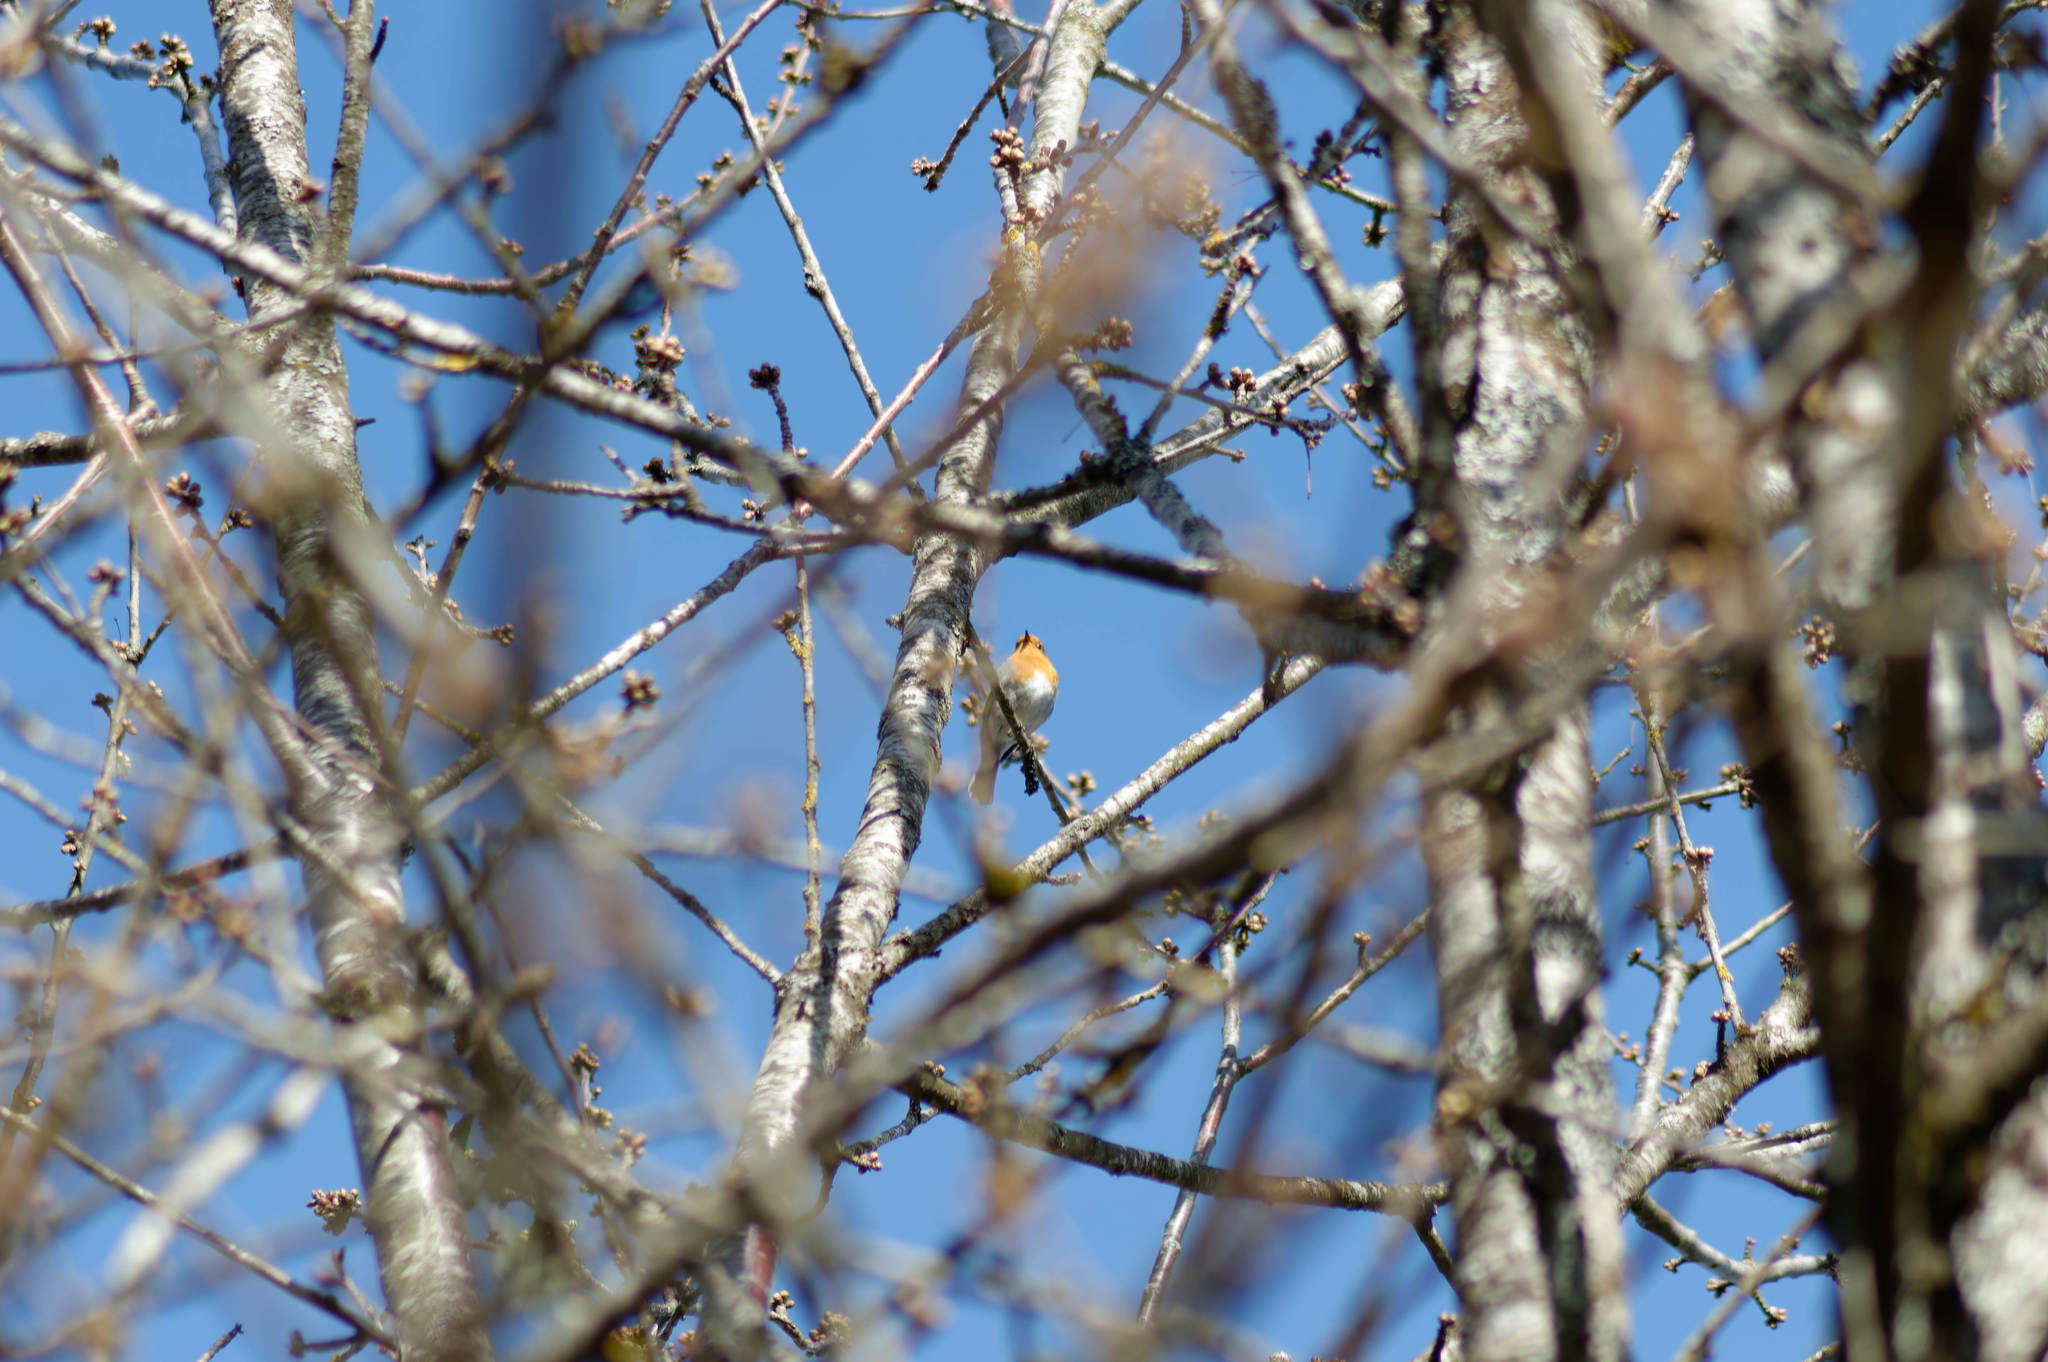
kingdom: Animalia
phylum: Chordata
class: Aves
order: Passeriformes
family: Muscicapidae
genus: Erithacus
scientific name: Erithacus rubecula
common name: European robin
